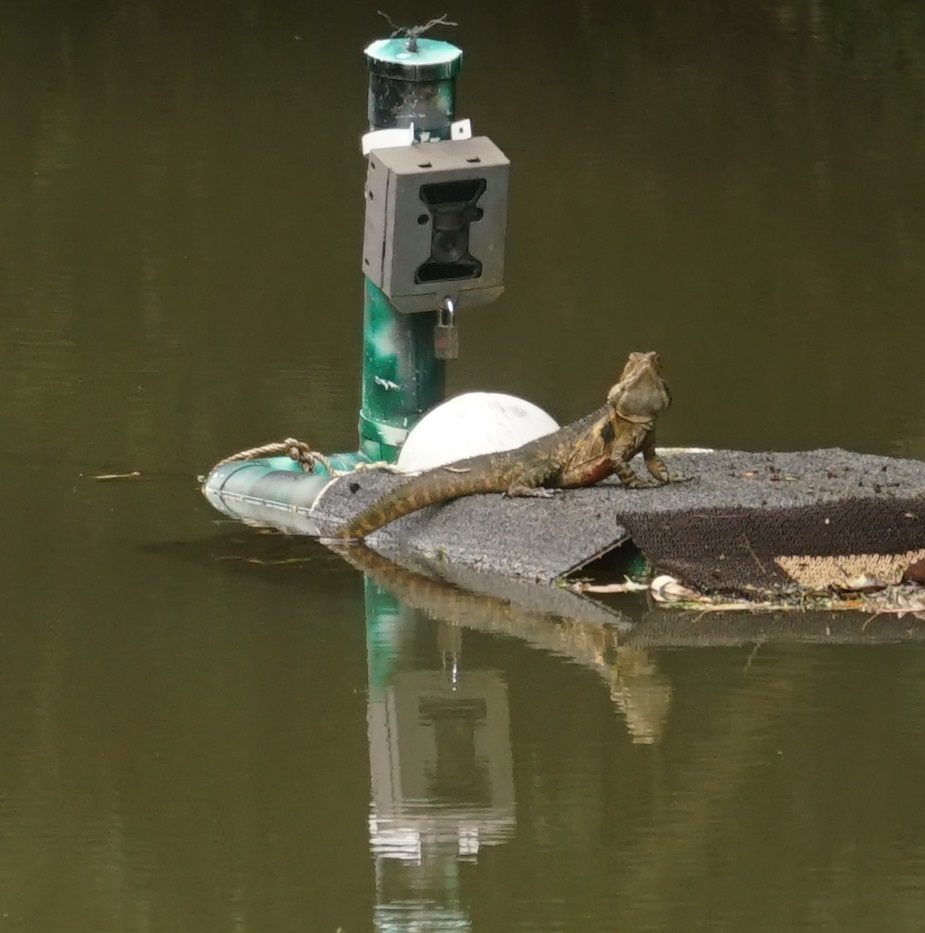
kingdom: Animalia
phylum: Chordata
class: Squamata
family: Agamidae
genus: Intellagama
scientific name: Intellagama lesueurii
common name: Eastern water dragon
